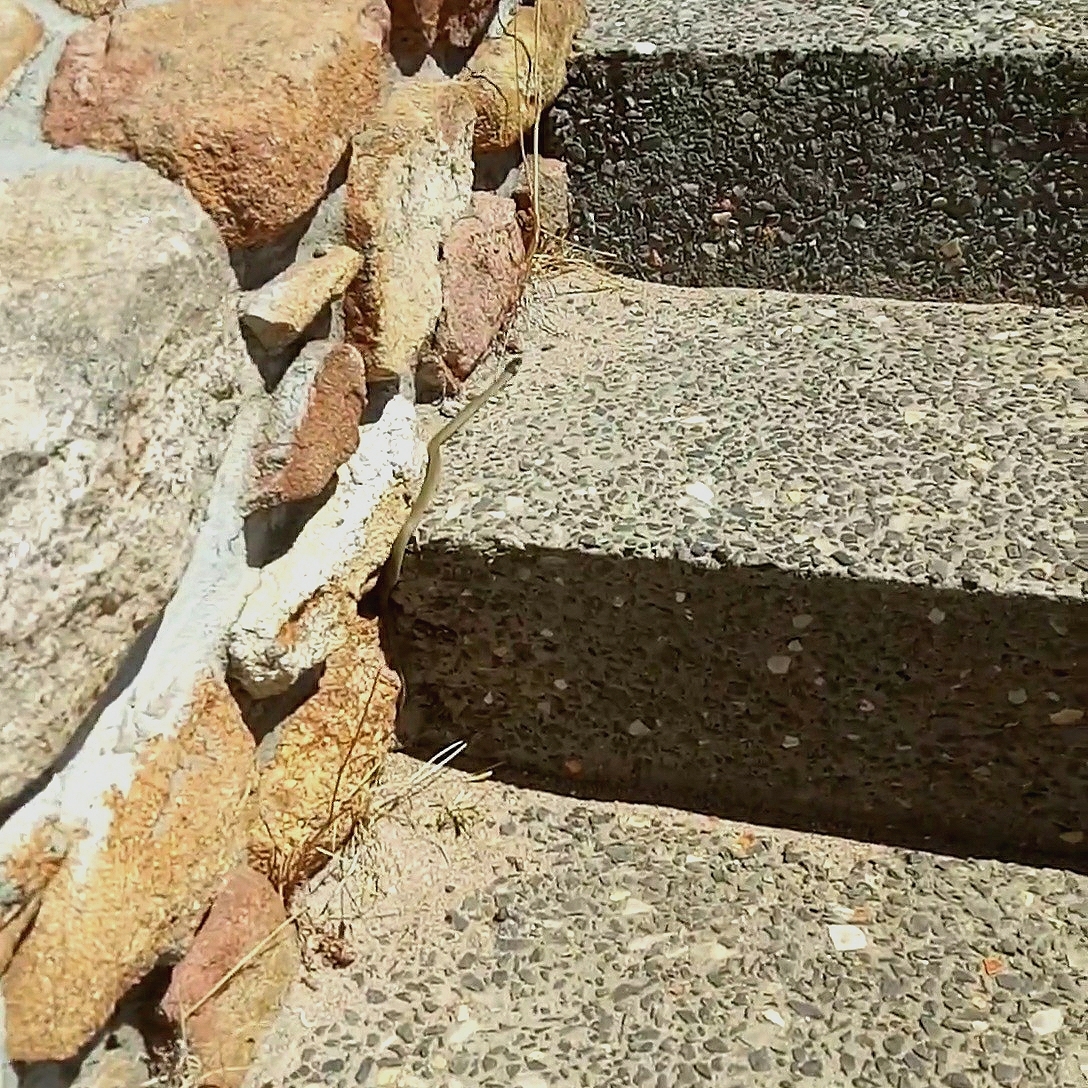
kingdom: Animalia
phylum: Chordata
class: Squamata
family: Elapidae
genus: Pseudonaja
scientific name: Pseudonaja affinis
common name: Dugite
